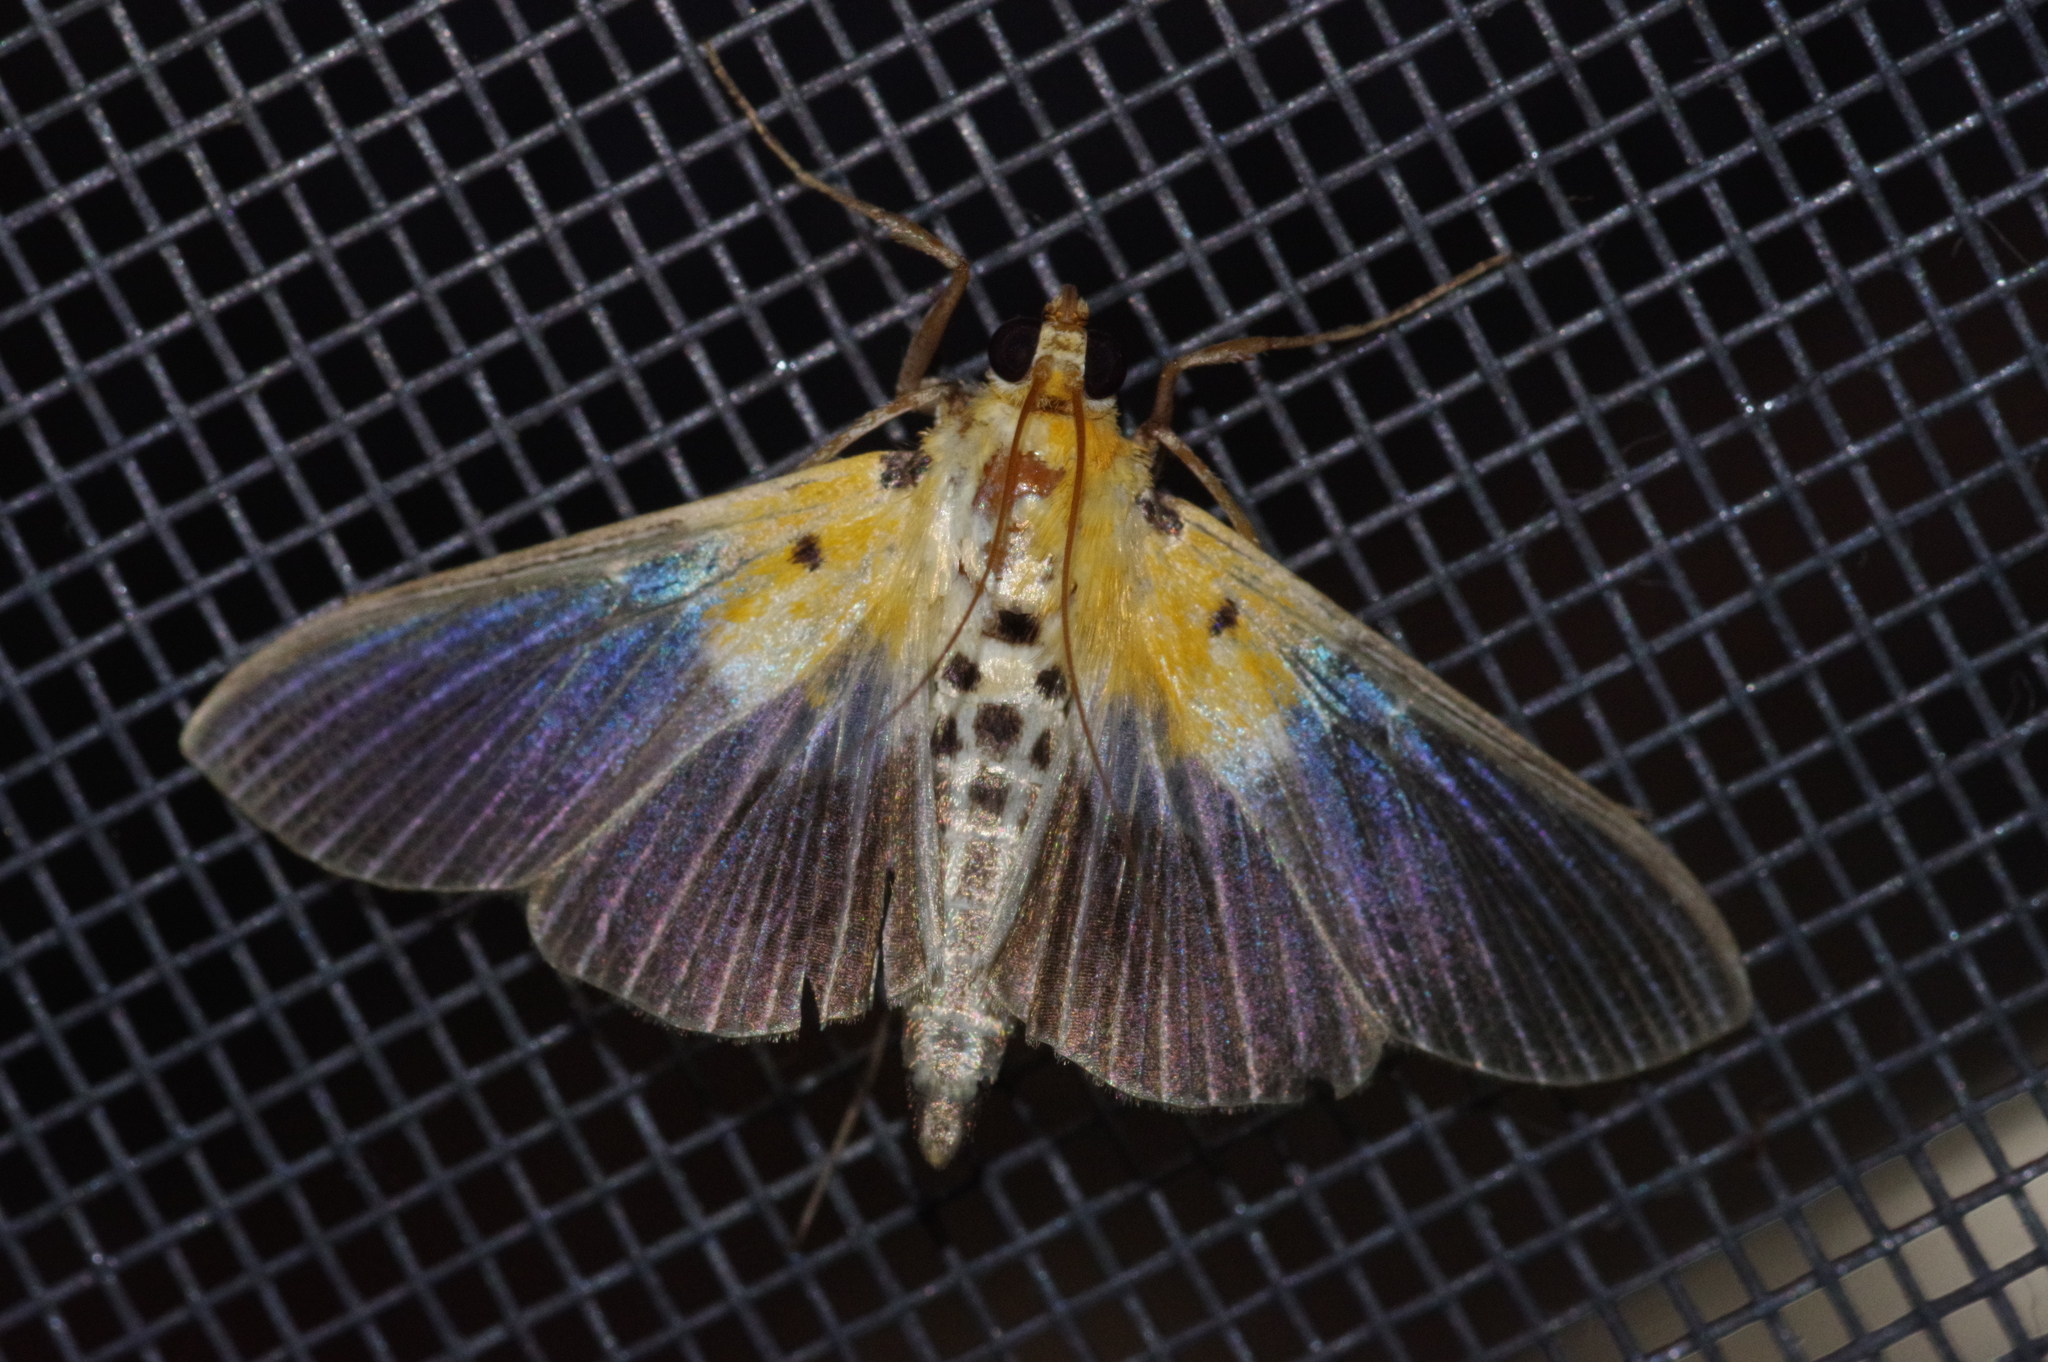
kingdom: Animalia
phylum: Arthropoda
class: Insecta
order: Lepidoptera
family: Crambidae
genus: Nevrina
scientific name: Nevrina procopia
